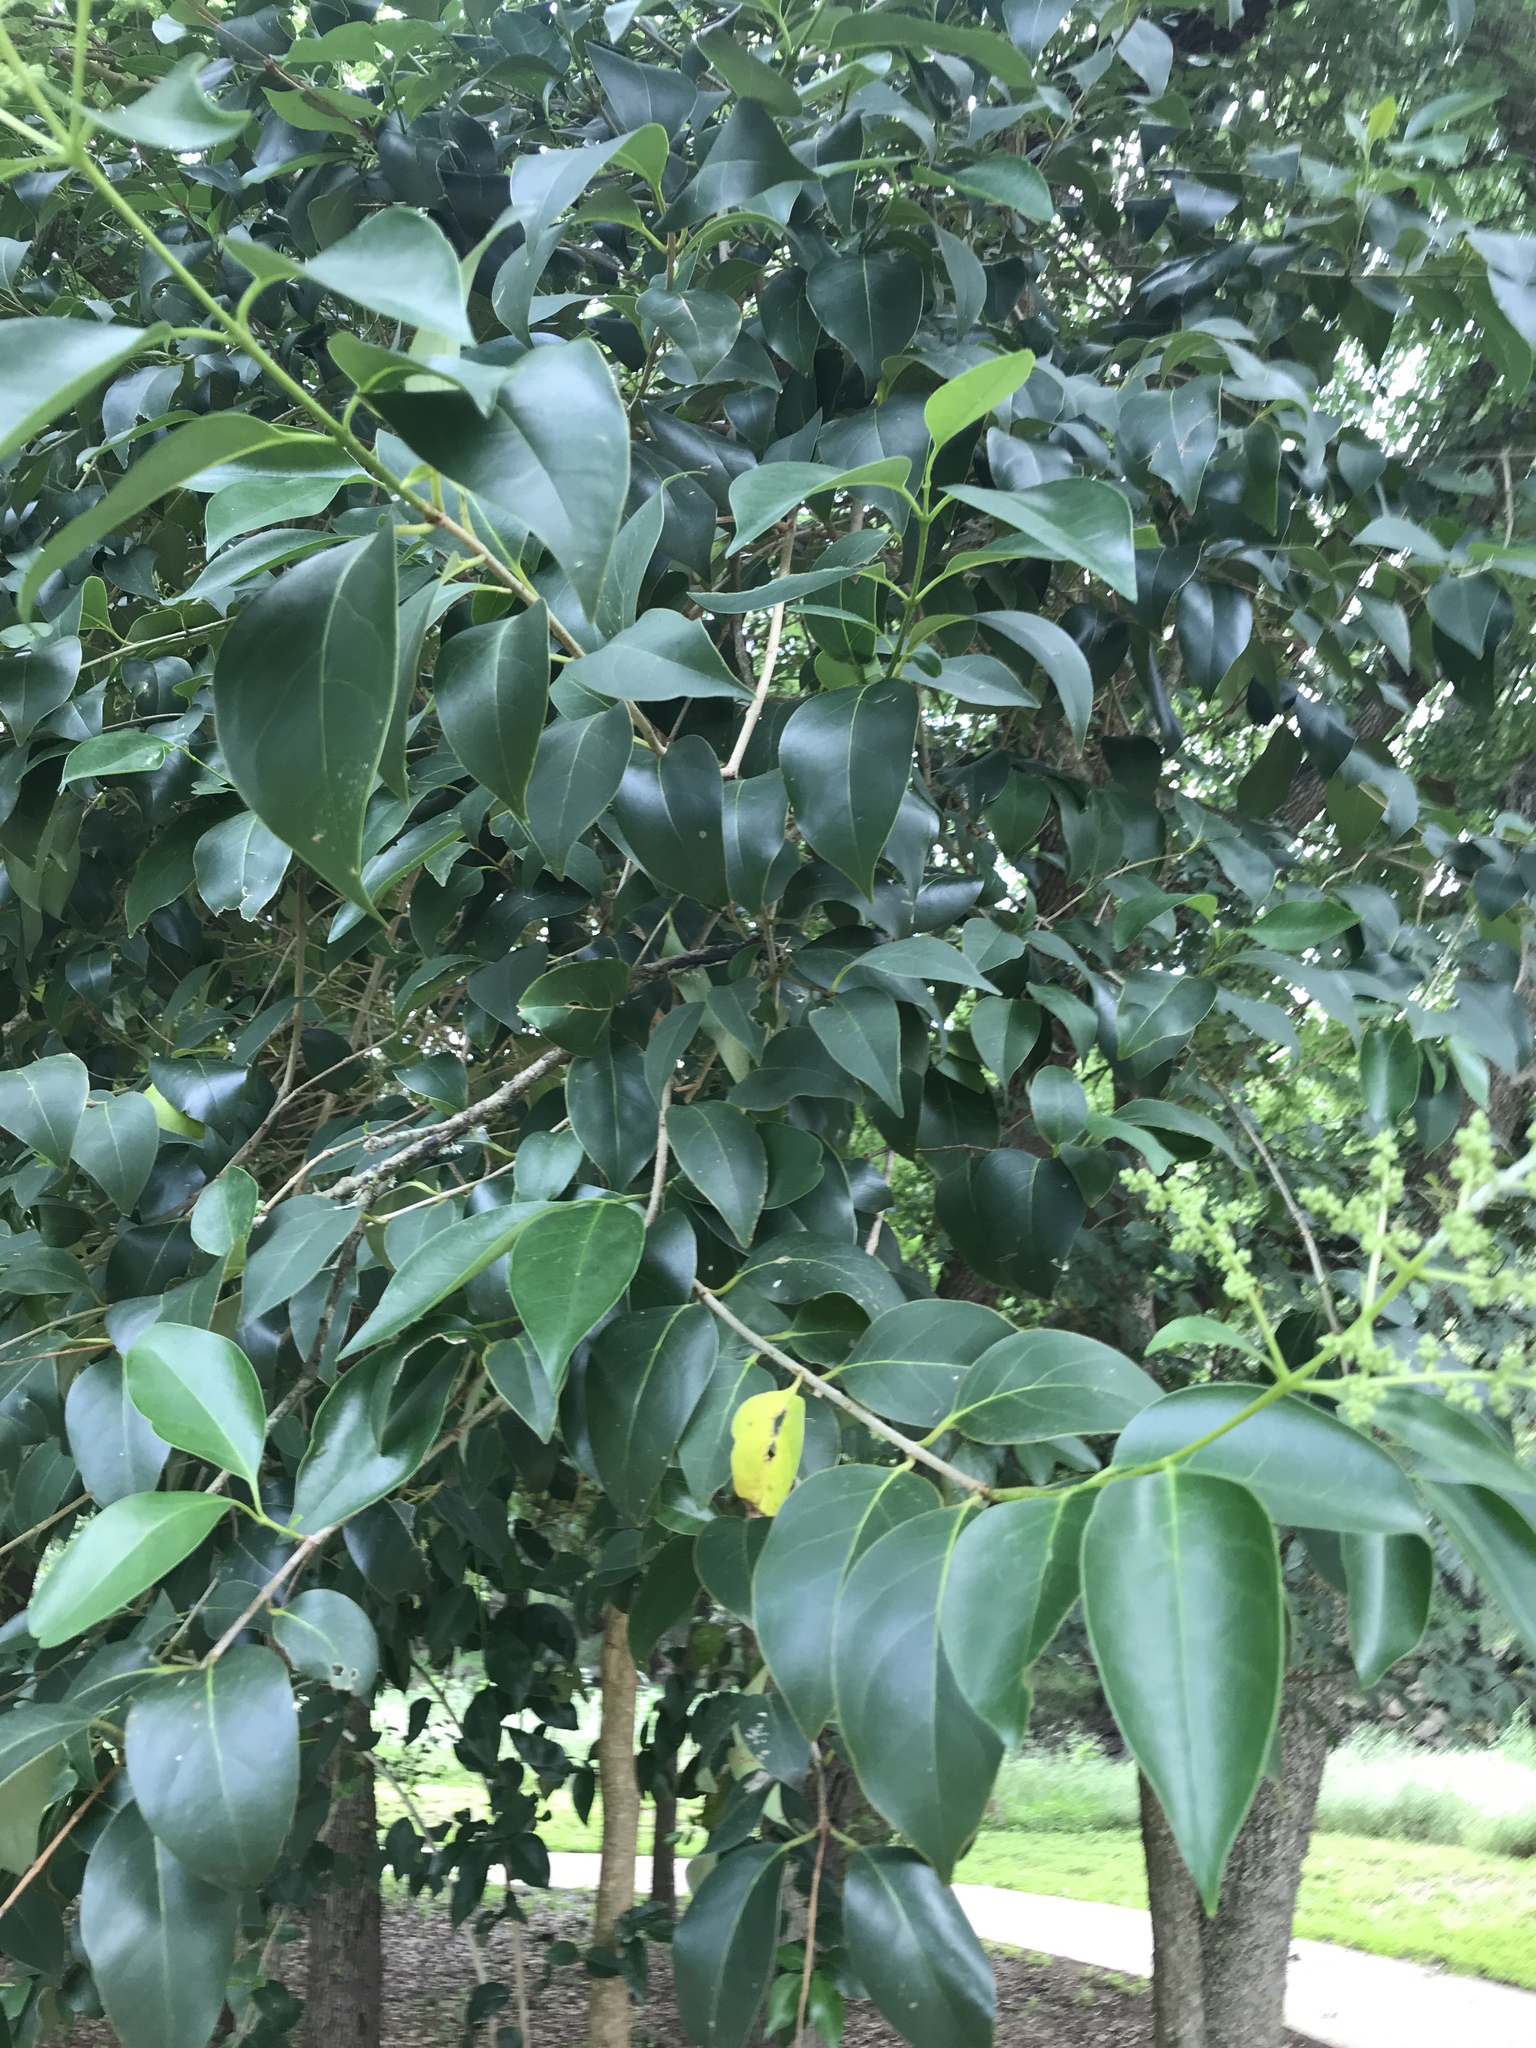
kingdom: Plantae
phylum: Tracheophyta
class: Magnoliopsida
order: Lamiales
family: Oleaceae
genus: Ligustrum
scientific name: Ligustrum lucidum
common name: Glossy privet
